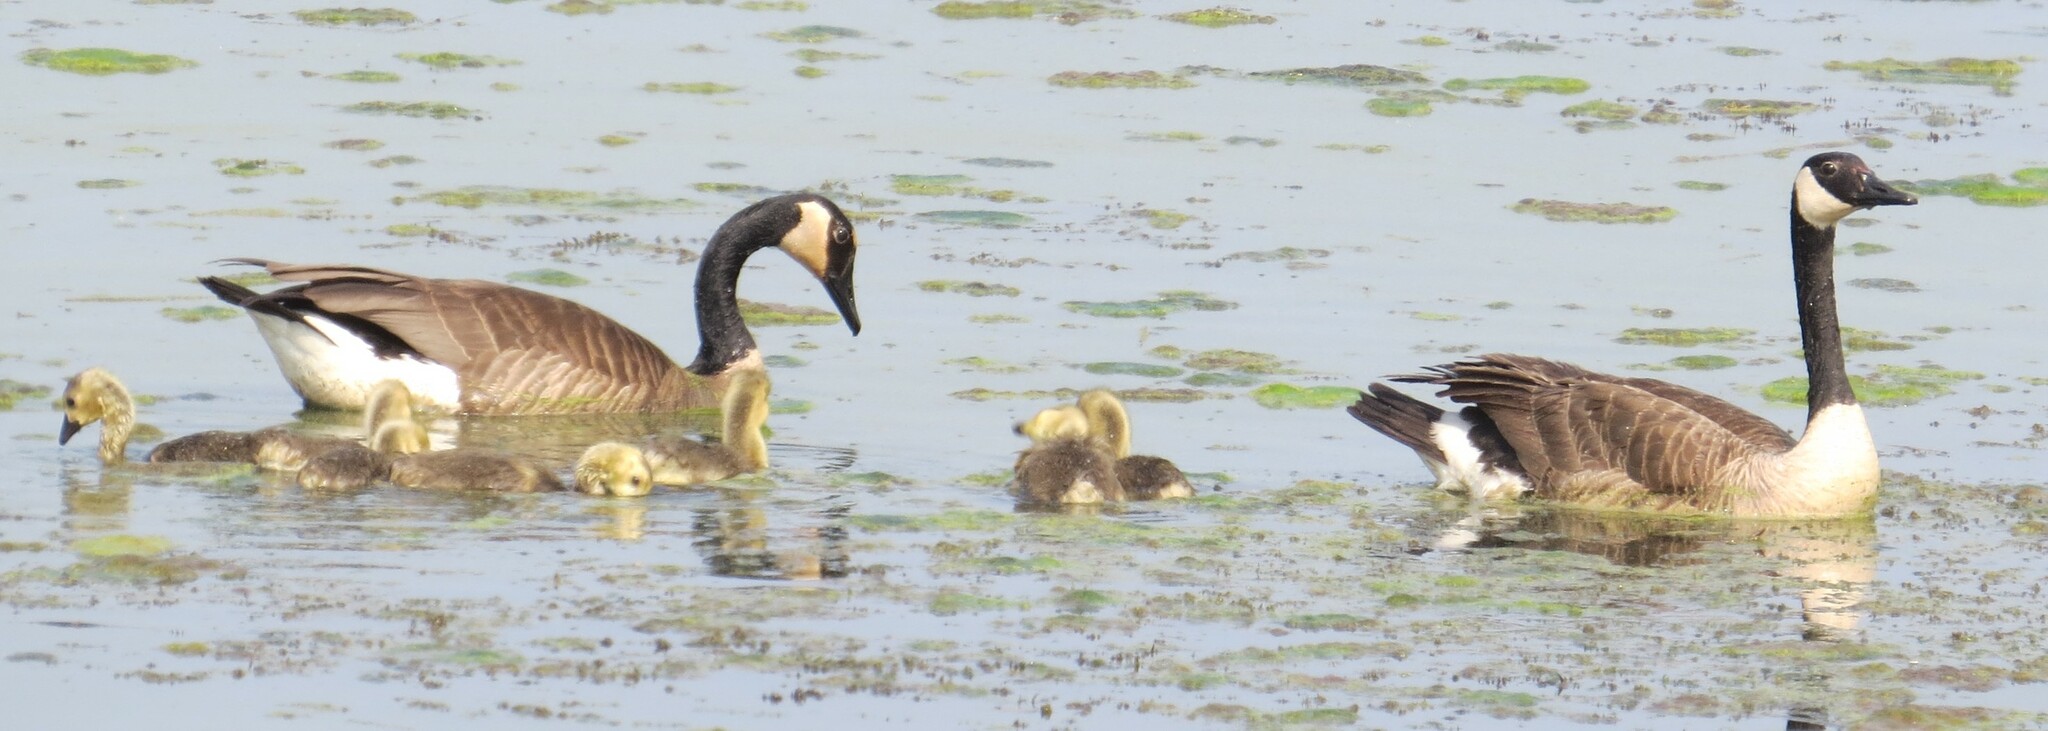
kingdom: Animalia
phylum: Chordata
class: Aves
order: Anseriformes
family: Anatidae
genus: Branta
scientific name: Branta canadensis
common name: Canada goose
